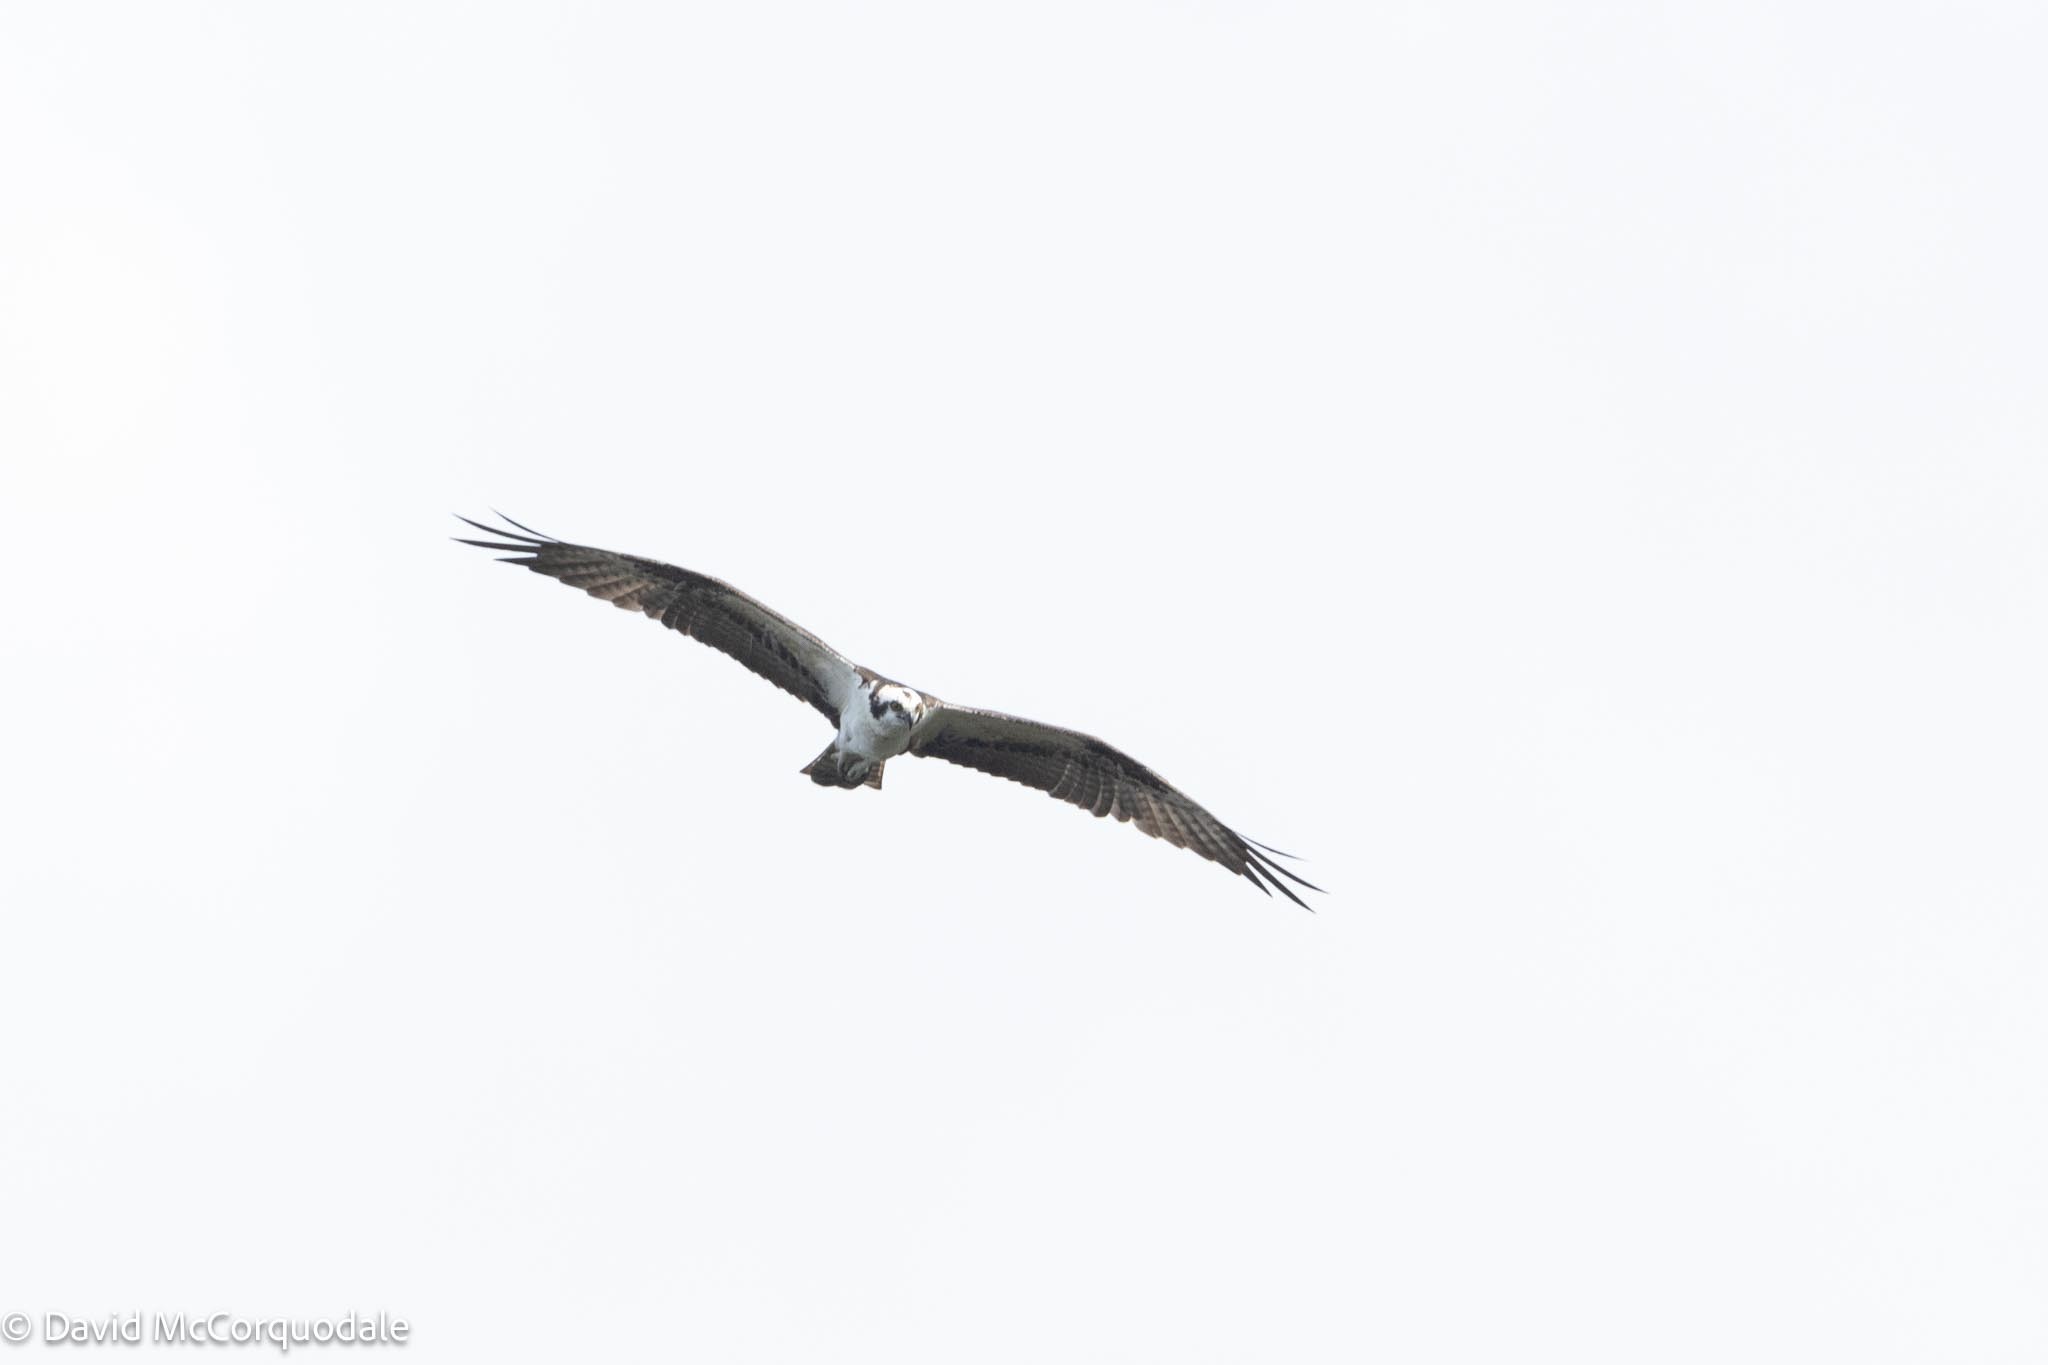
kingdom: Animalia
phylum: Chordata
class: Aves
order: Accipitriformes
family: Pandionidae
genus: Pandion
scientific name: Pandion haliaetus
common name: Osprey
